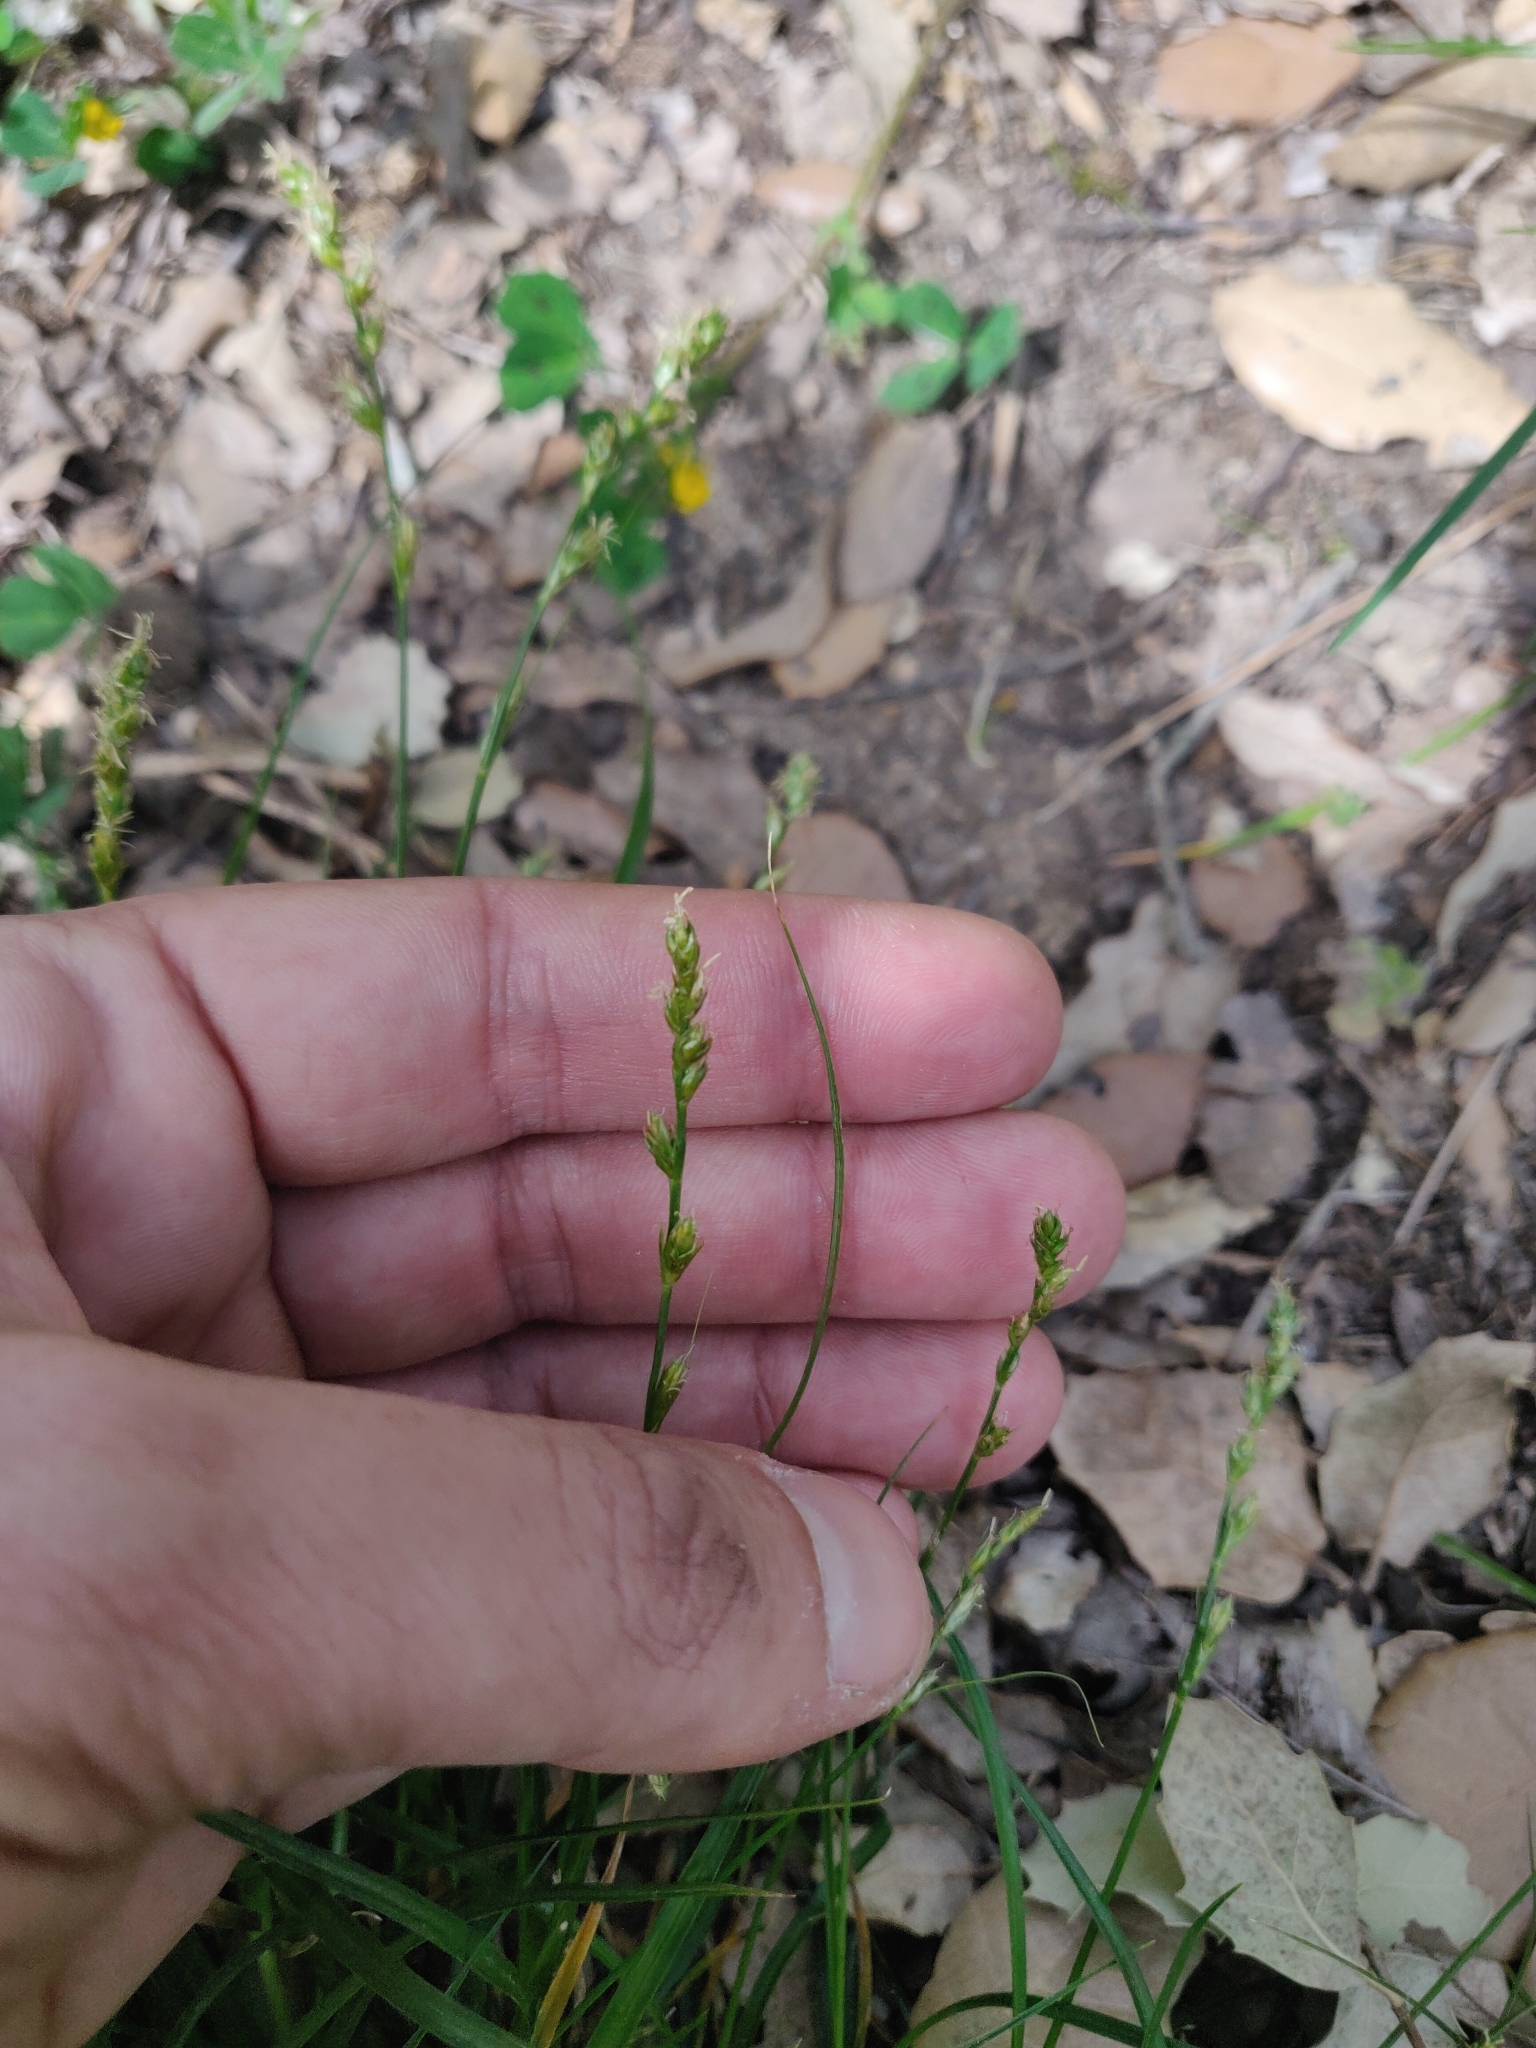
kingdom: Plantae
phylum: Tracheophyta
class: Liliopsida
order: Poales
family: Cyperaceae
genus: Carex
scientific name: Carex divulsa
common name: Grassland sedge
